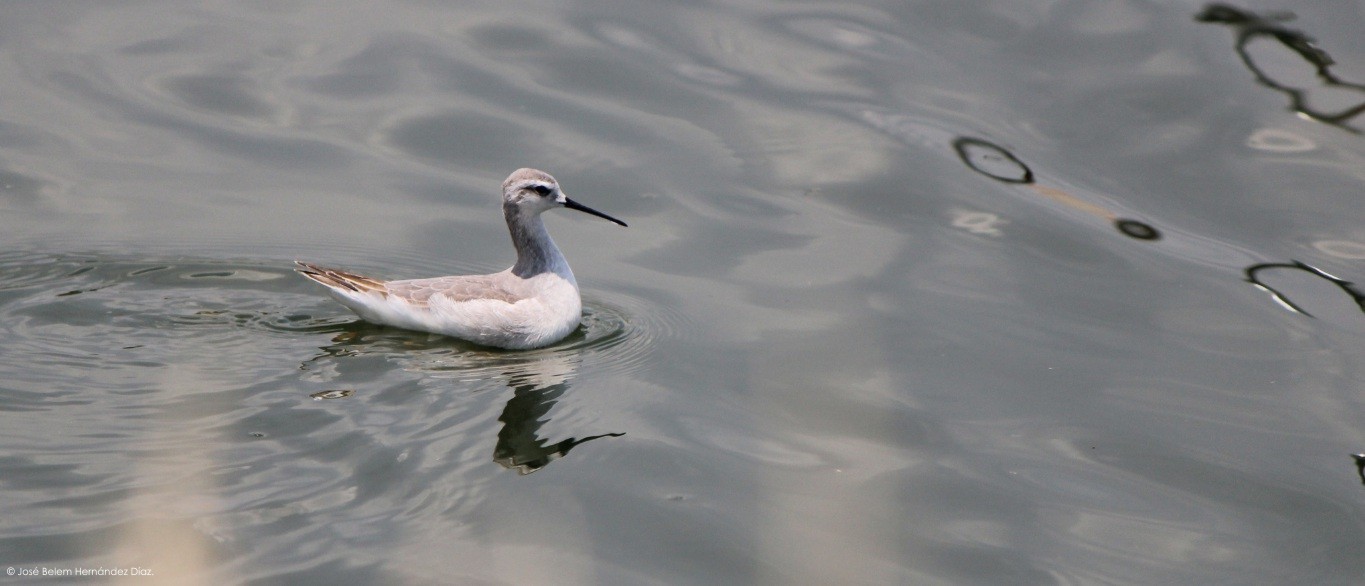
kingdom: Animalia
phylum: Chordata
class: Aves
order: Charadriiformes
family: Scolopacidae
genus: Phalaropus
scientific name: Phalaropus tricolor
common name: Wilson's phalarope
